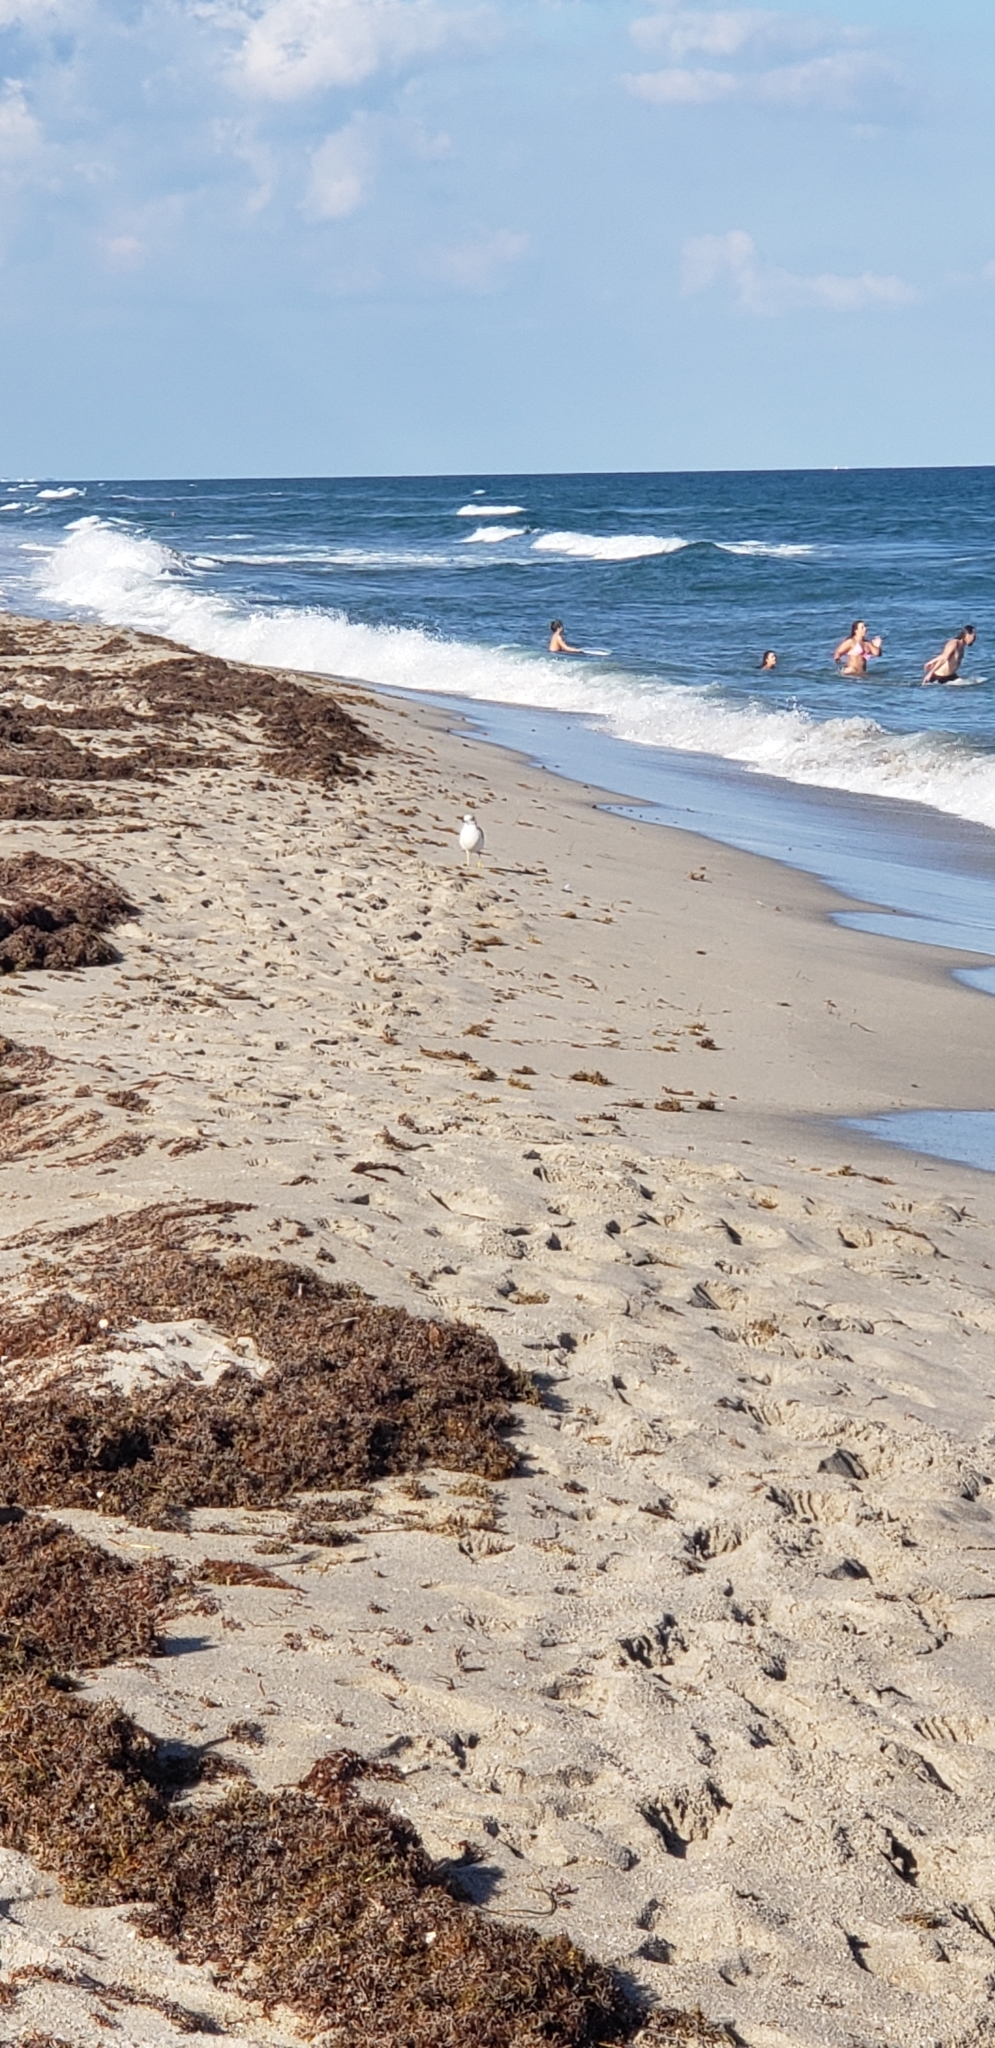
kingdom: Animalia
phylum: Chordata
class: Aves
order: Charadriiformes
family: Laridae
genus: Larus
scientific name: Larus delawarensis
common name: Ring-billed gull
